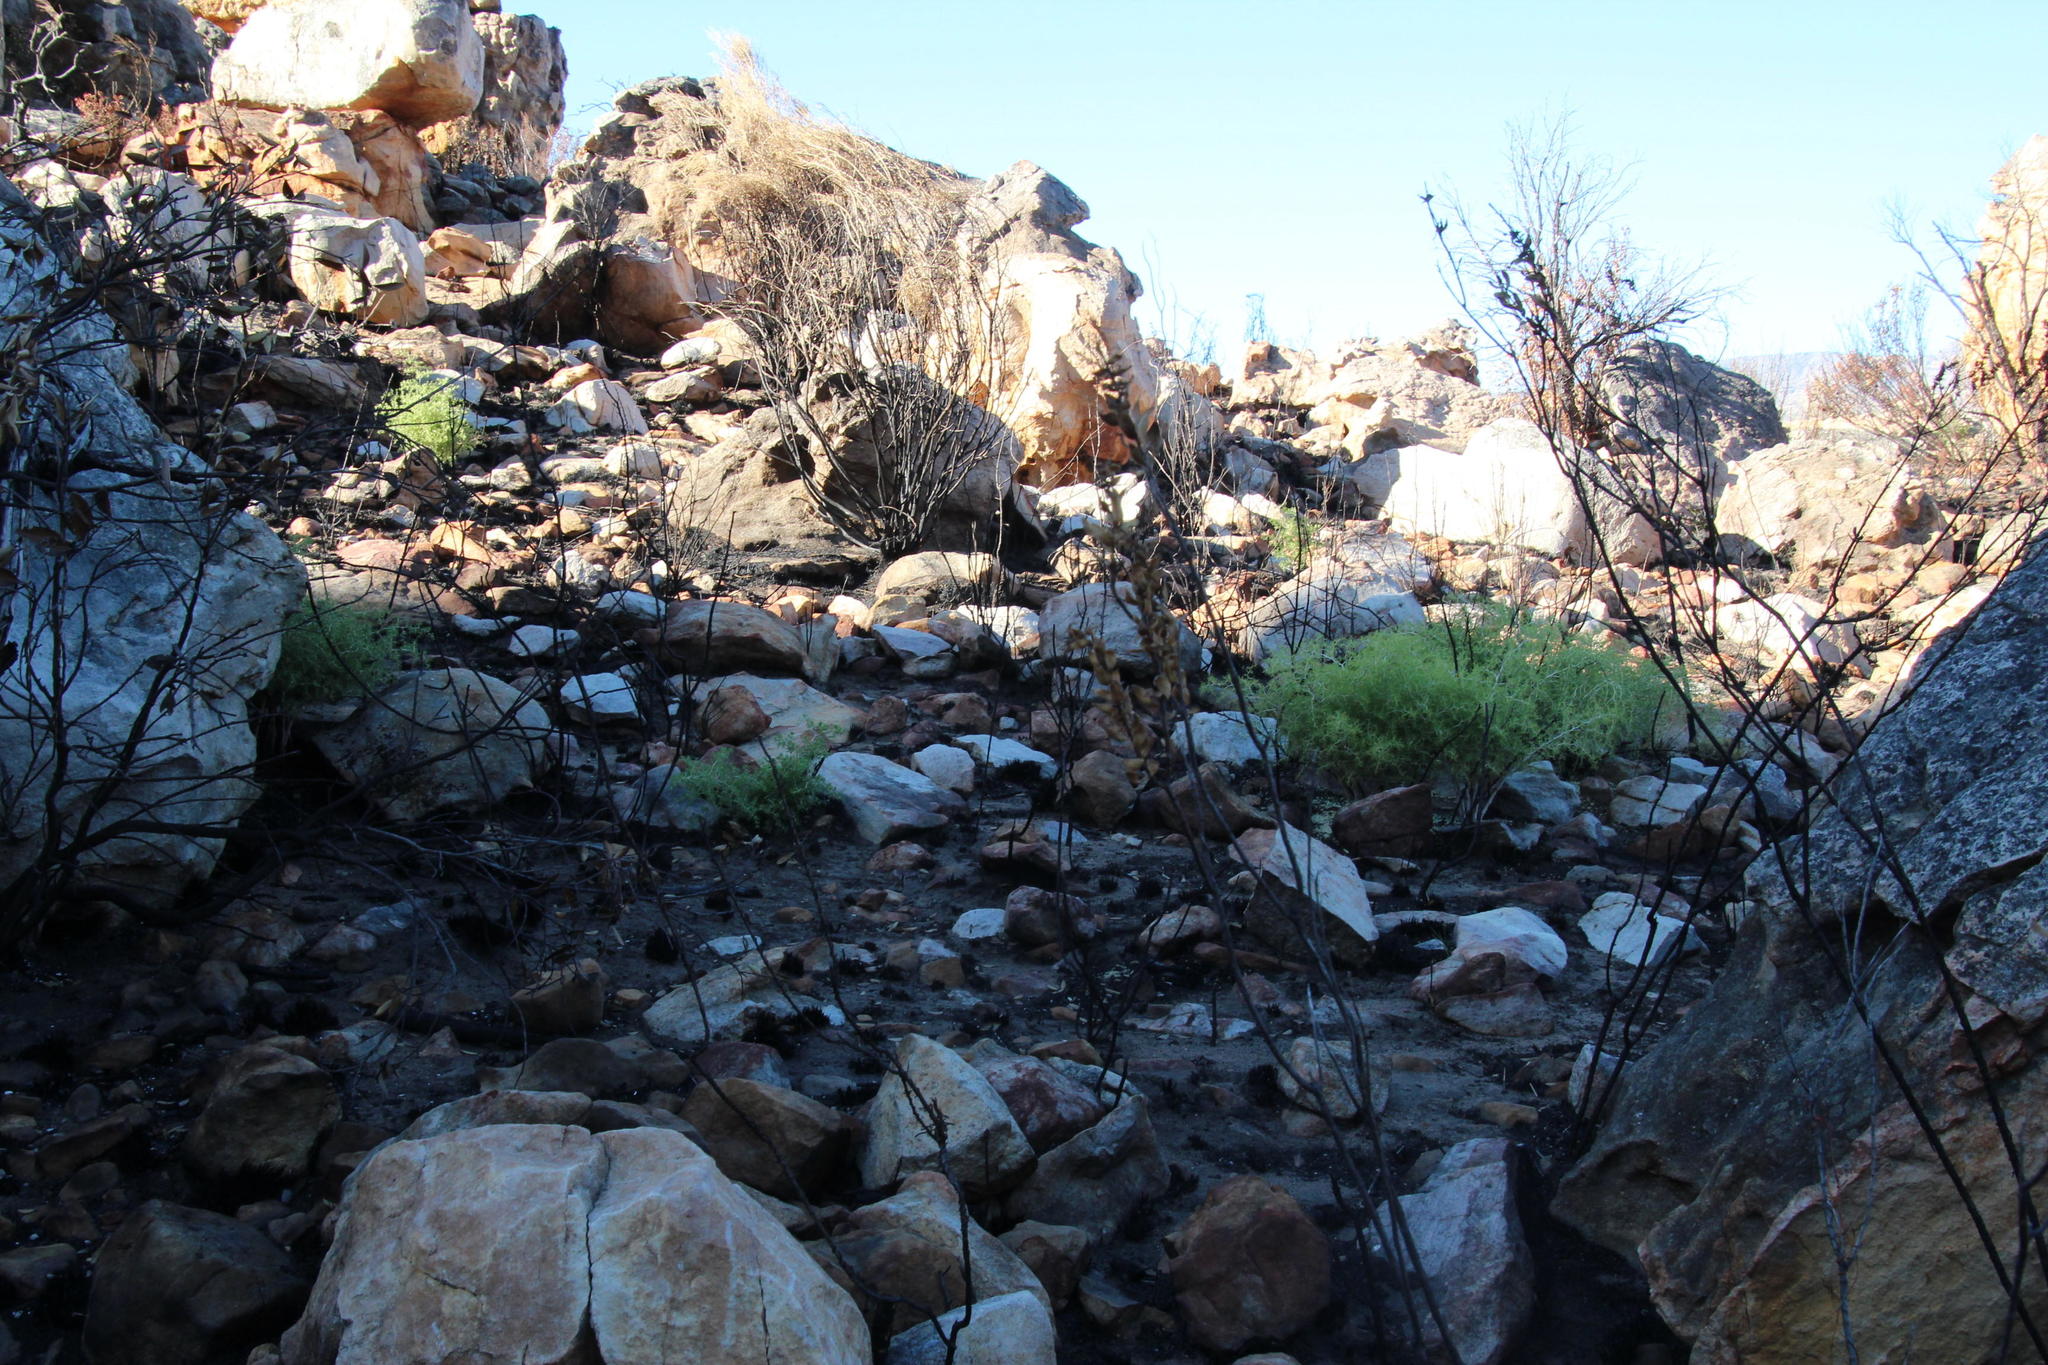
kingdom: Plantae
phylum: Tracheophyta
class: Liliopsida
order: Asparagales
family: Asparagaceae
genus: Asparagus
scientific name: Asparagus lignosus
